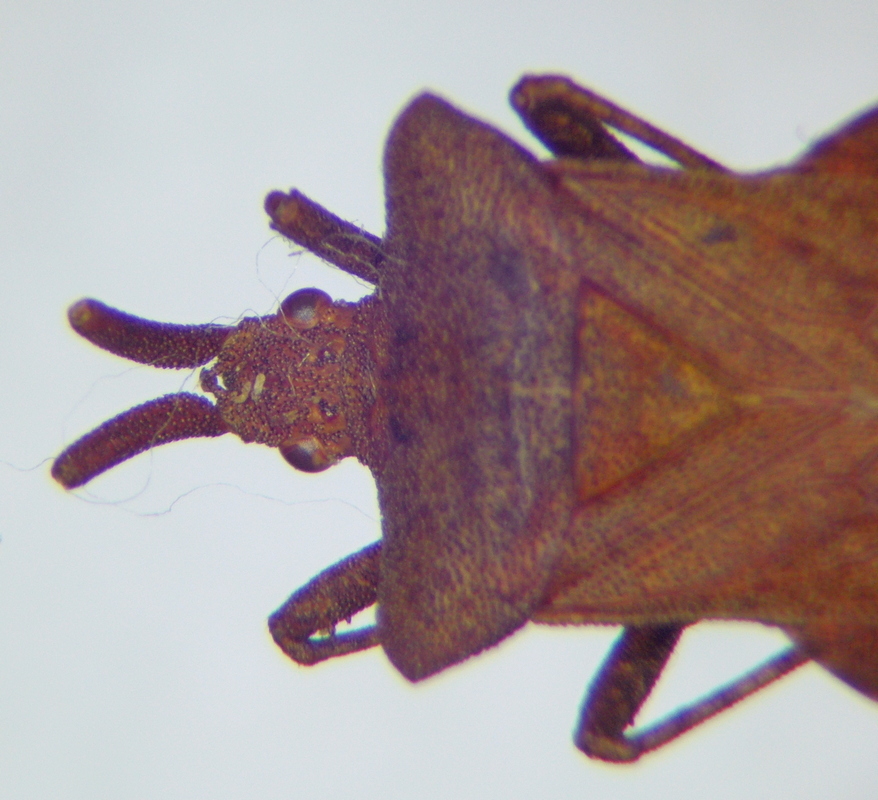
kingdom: Animalia
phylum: Arthropoda
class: Insecta
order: Hemiptera
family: Coreidae
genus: Coreus
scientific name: Coreus marginatus
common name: Dock bug
